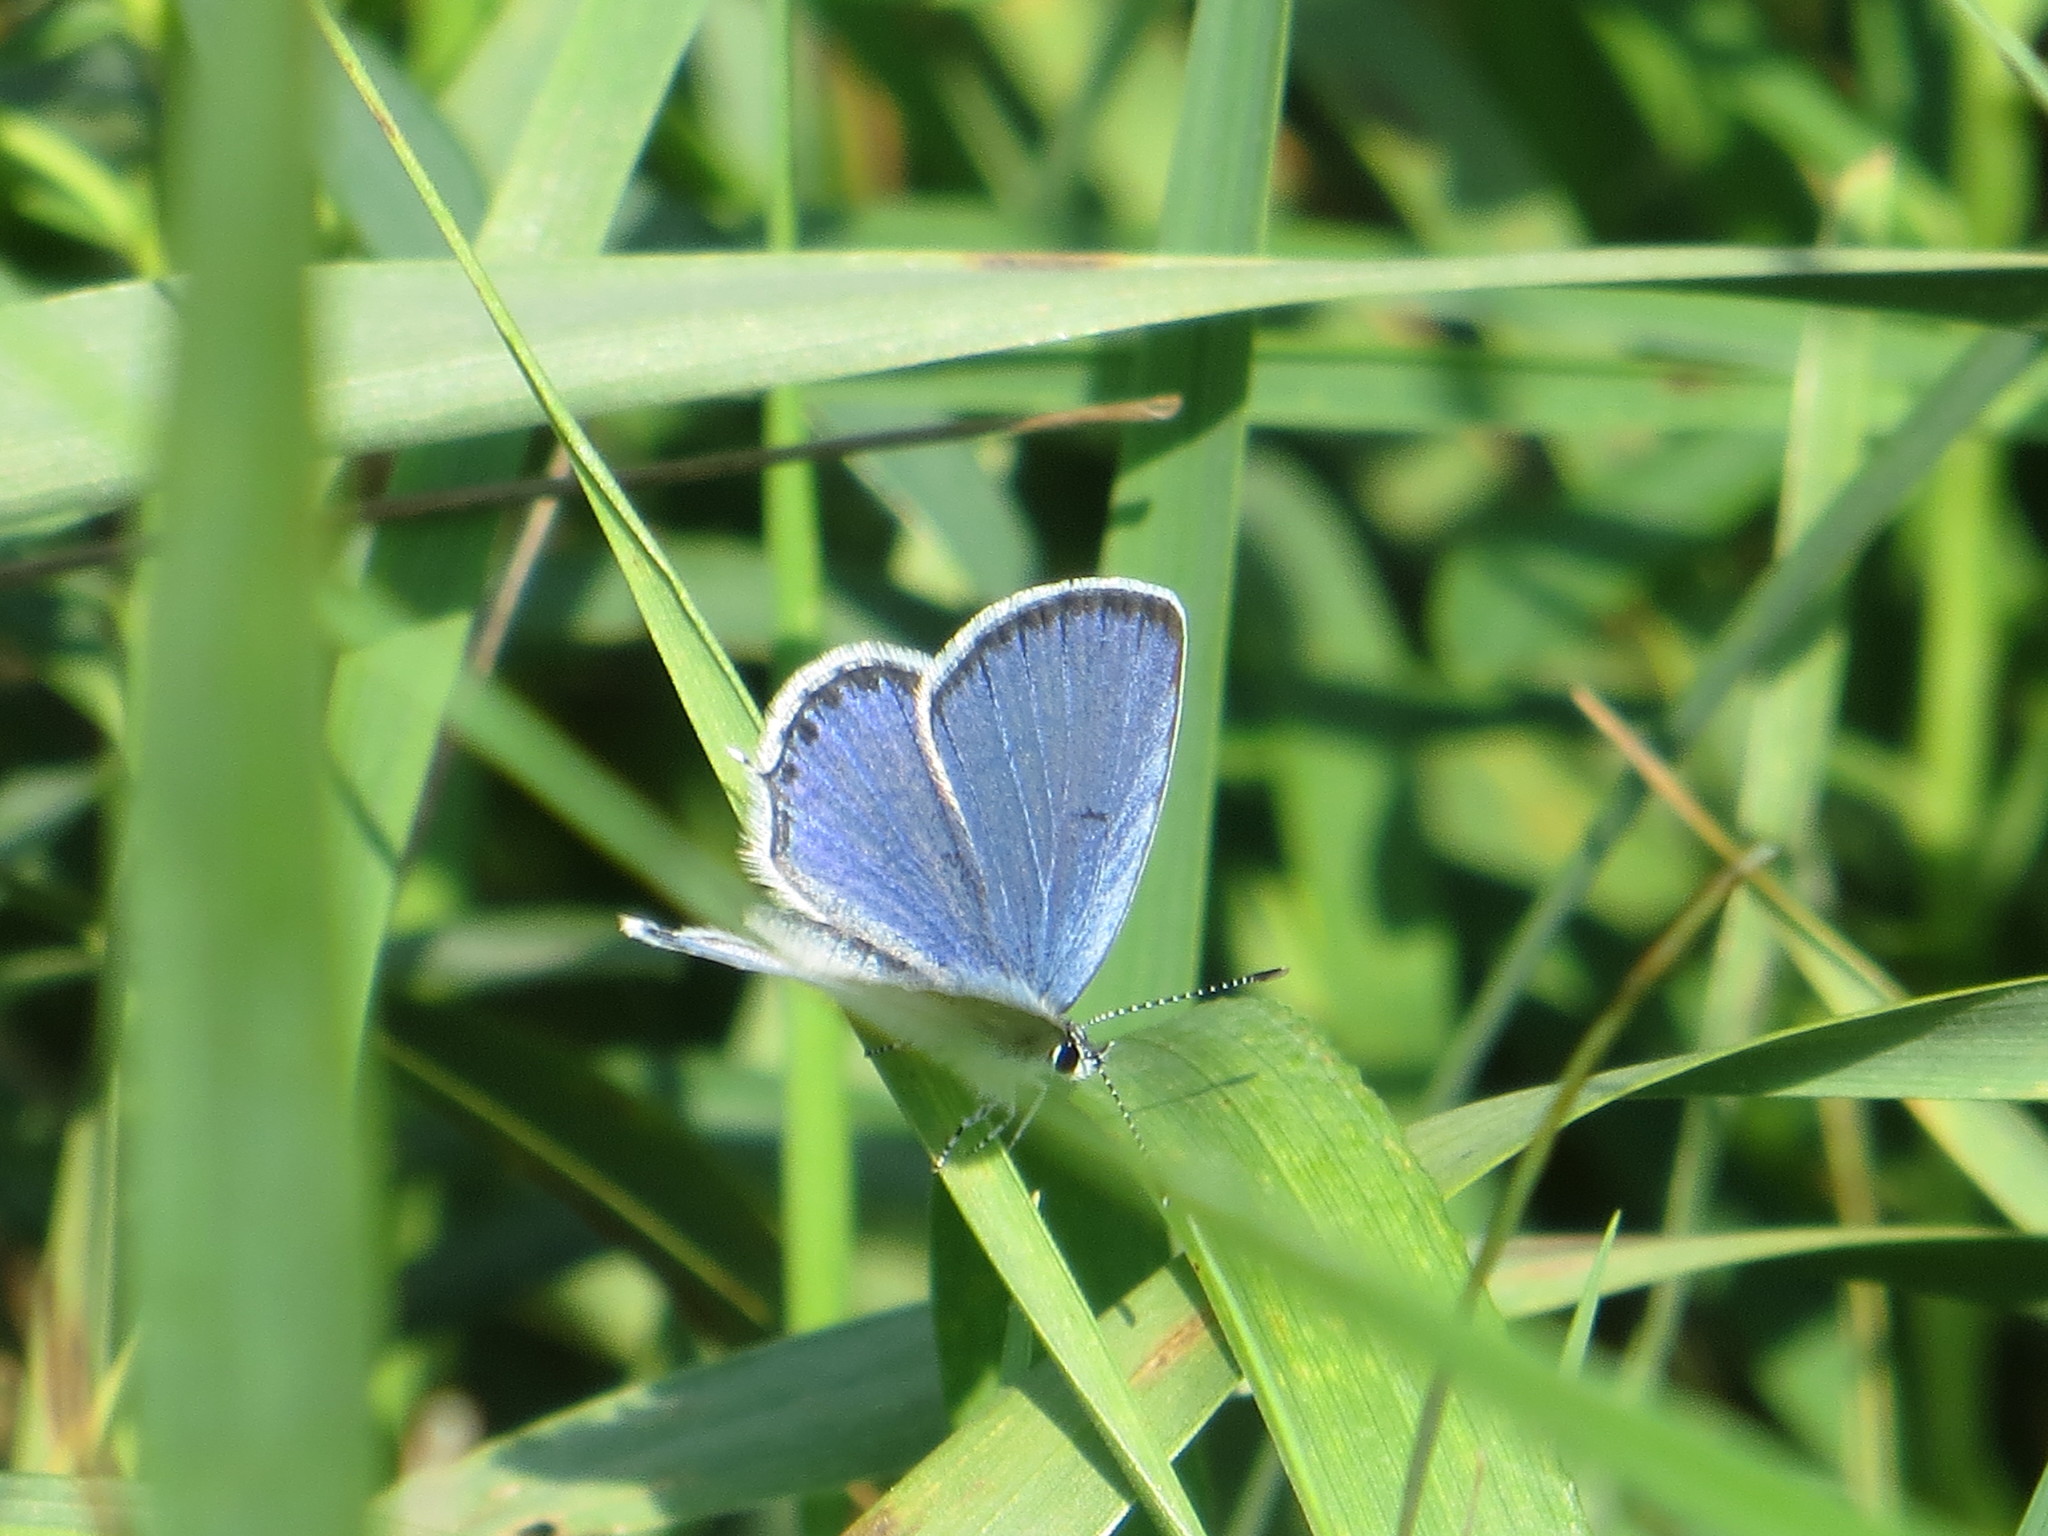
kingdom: Animalia
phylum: Arthropoda
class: Insecta
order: Lepidoptera
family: Lycaenidae
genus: Elkalyce
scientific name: Elkalyce argiades
